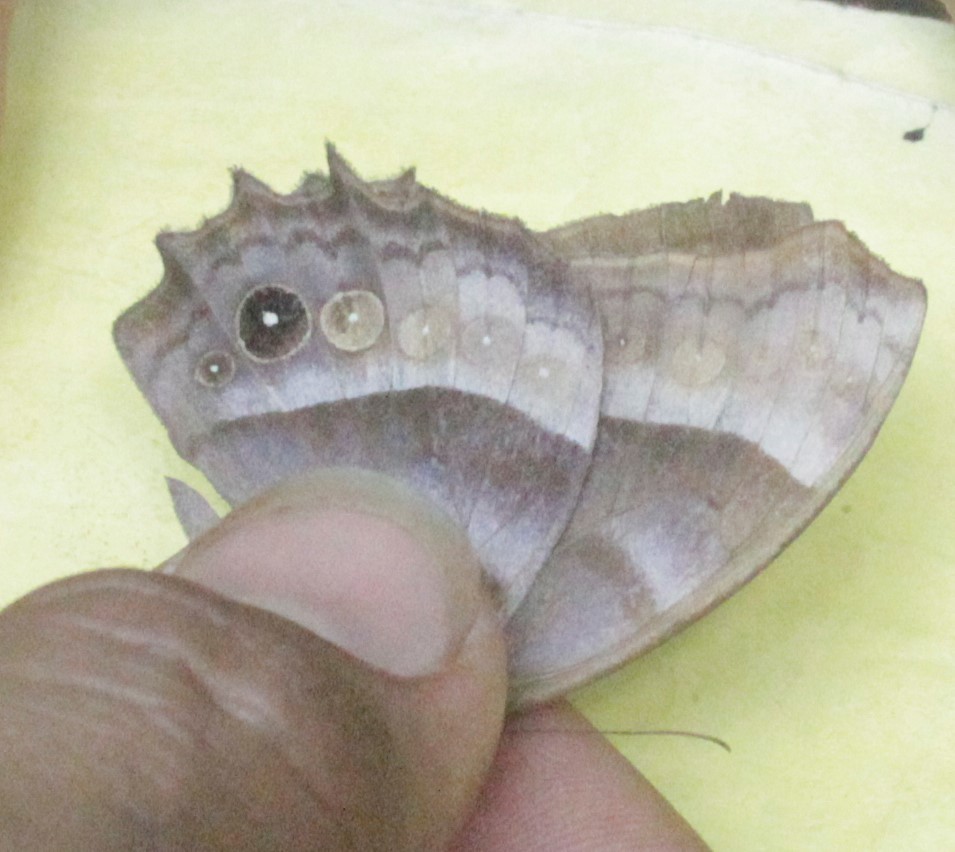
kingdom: Animalia
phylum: Arthropoda
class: Insecta
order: Lepidoptera
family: Nymphalidae
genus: Taygetis
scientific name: Taygetis inconspicua
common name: Inconspicuous satyr
